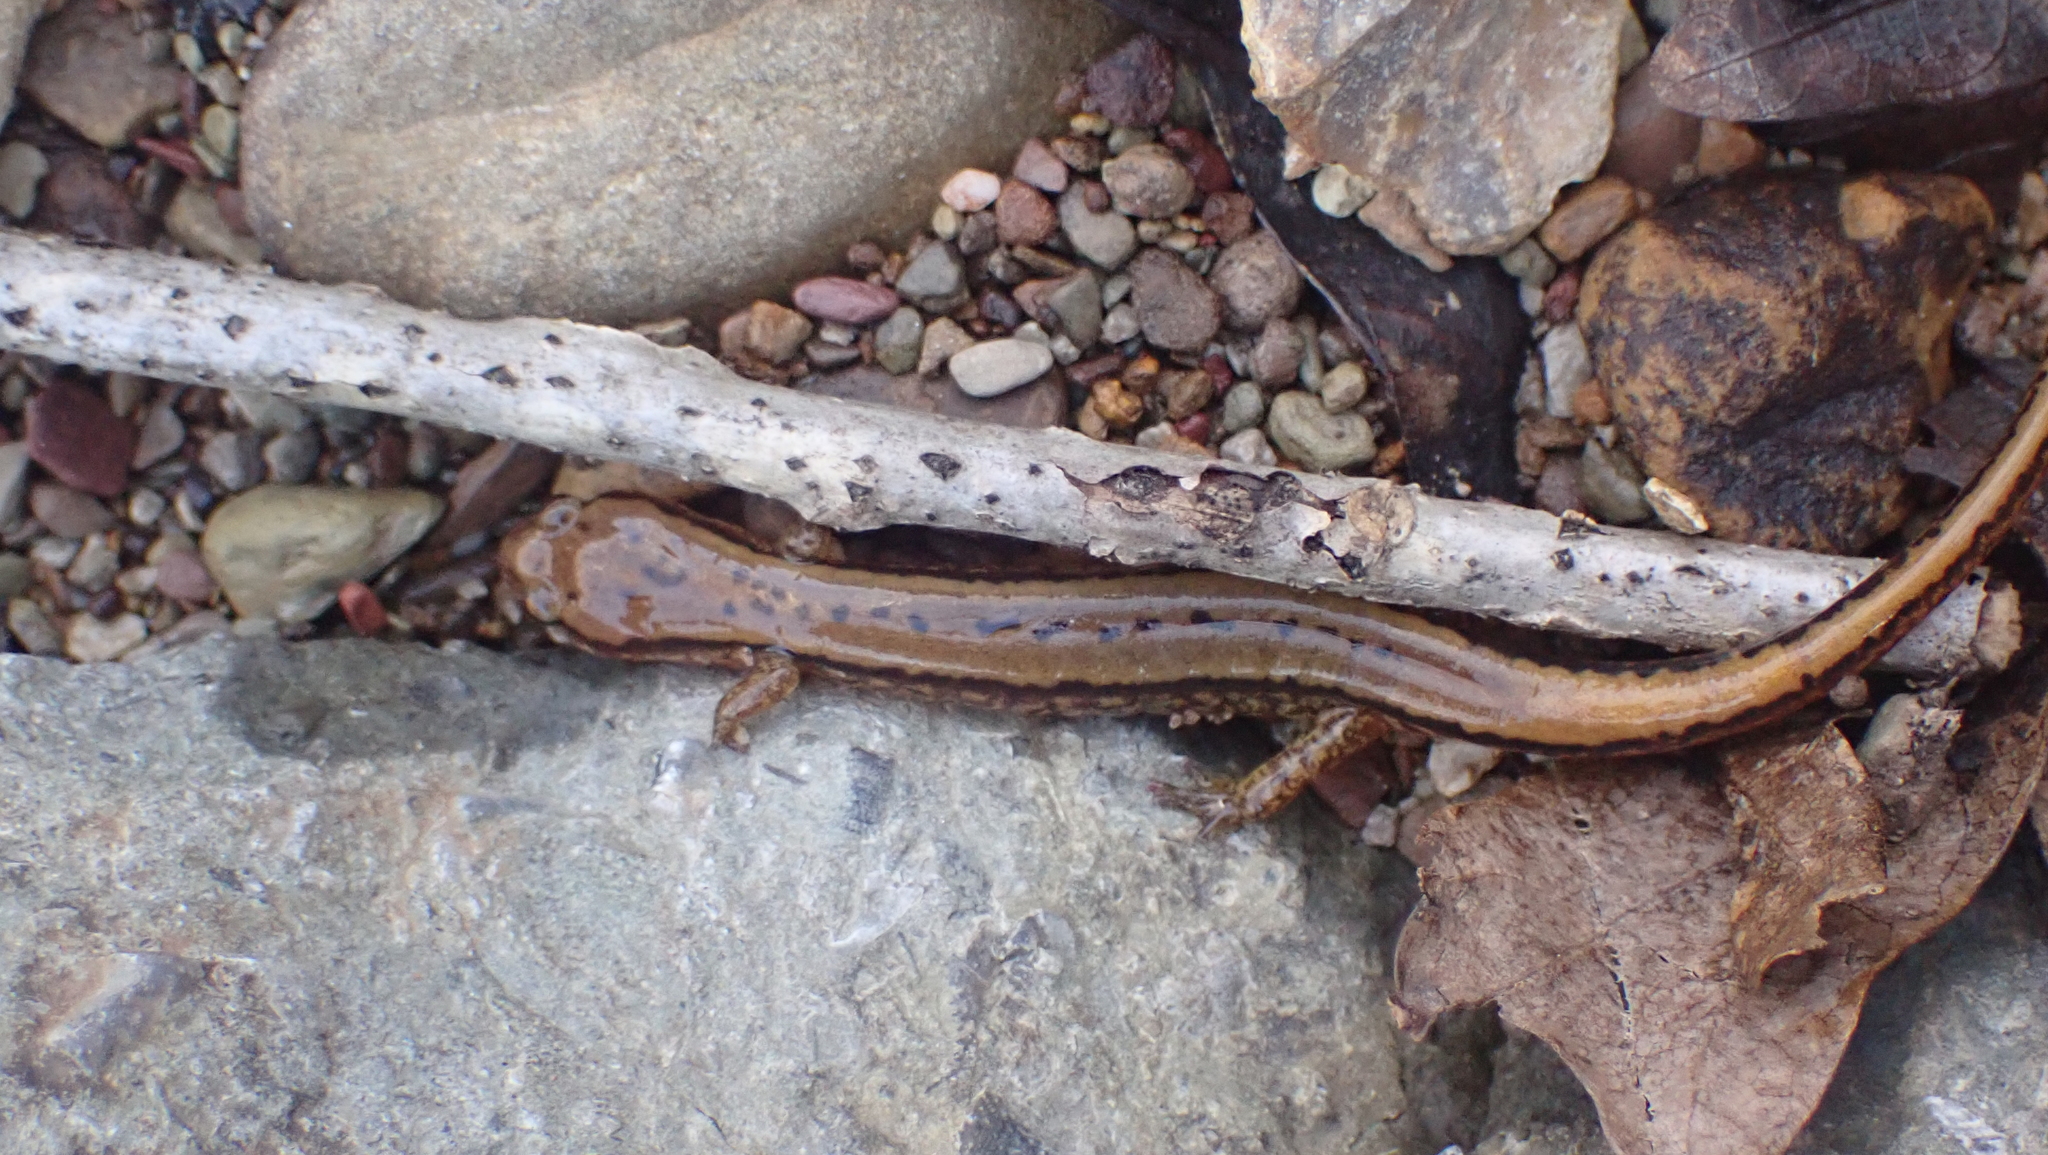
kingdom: Animalia
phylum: Chordata
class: Amphibia
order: Caudata
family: Plethodontidae
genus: Eurycea
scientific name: Eurycea cirrigera
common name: Southern two-lined salamander
